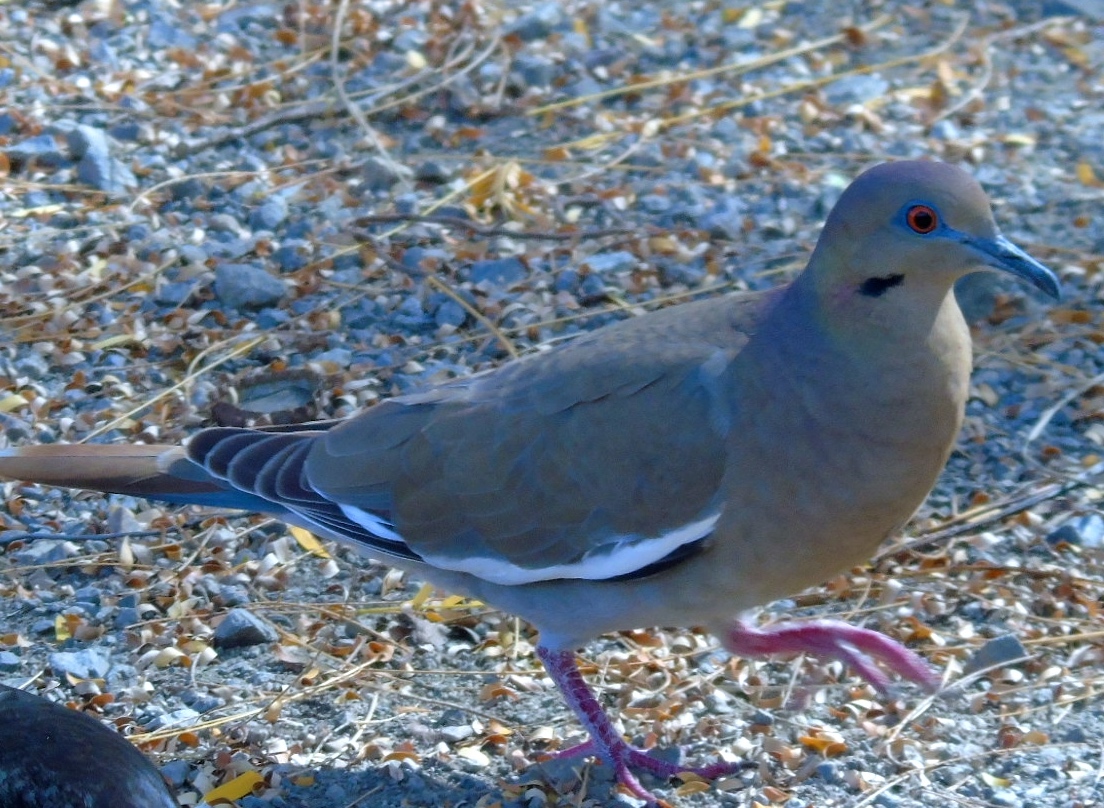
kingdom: Animalia
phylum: Chordata
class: Aves
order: Columbiformes
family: Columbidae
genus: Zenaida
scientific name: Zenaida asiatica
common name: White-winged dove
